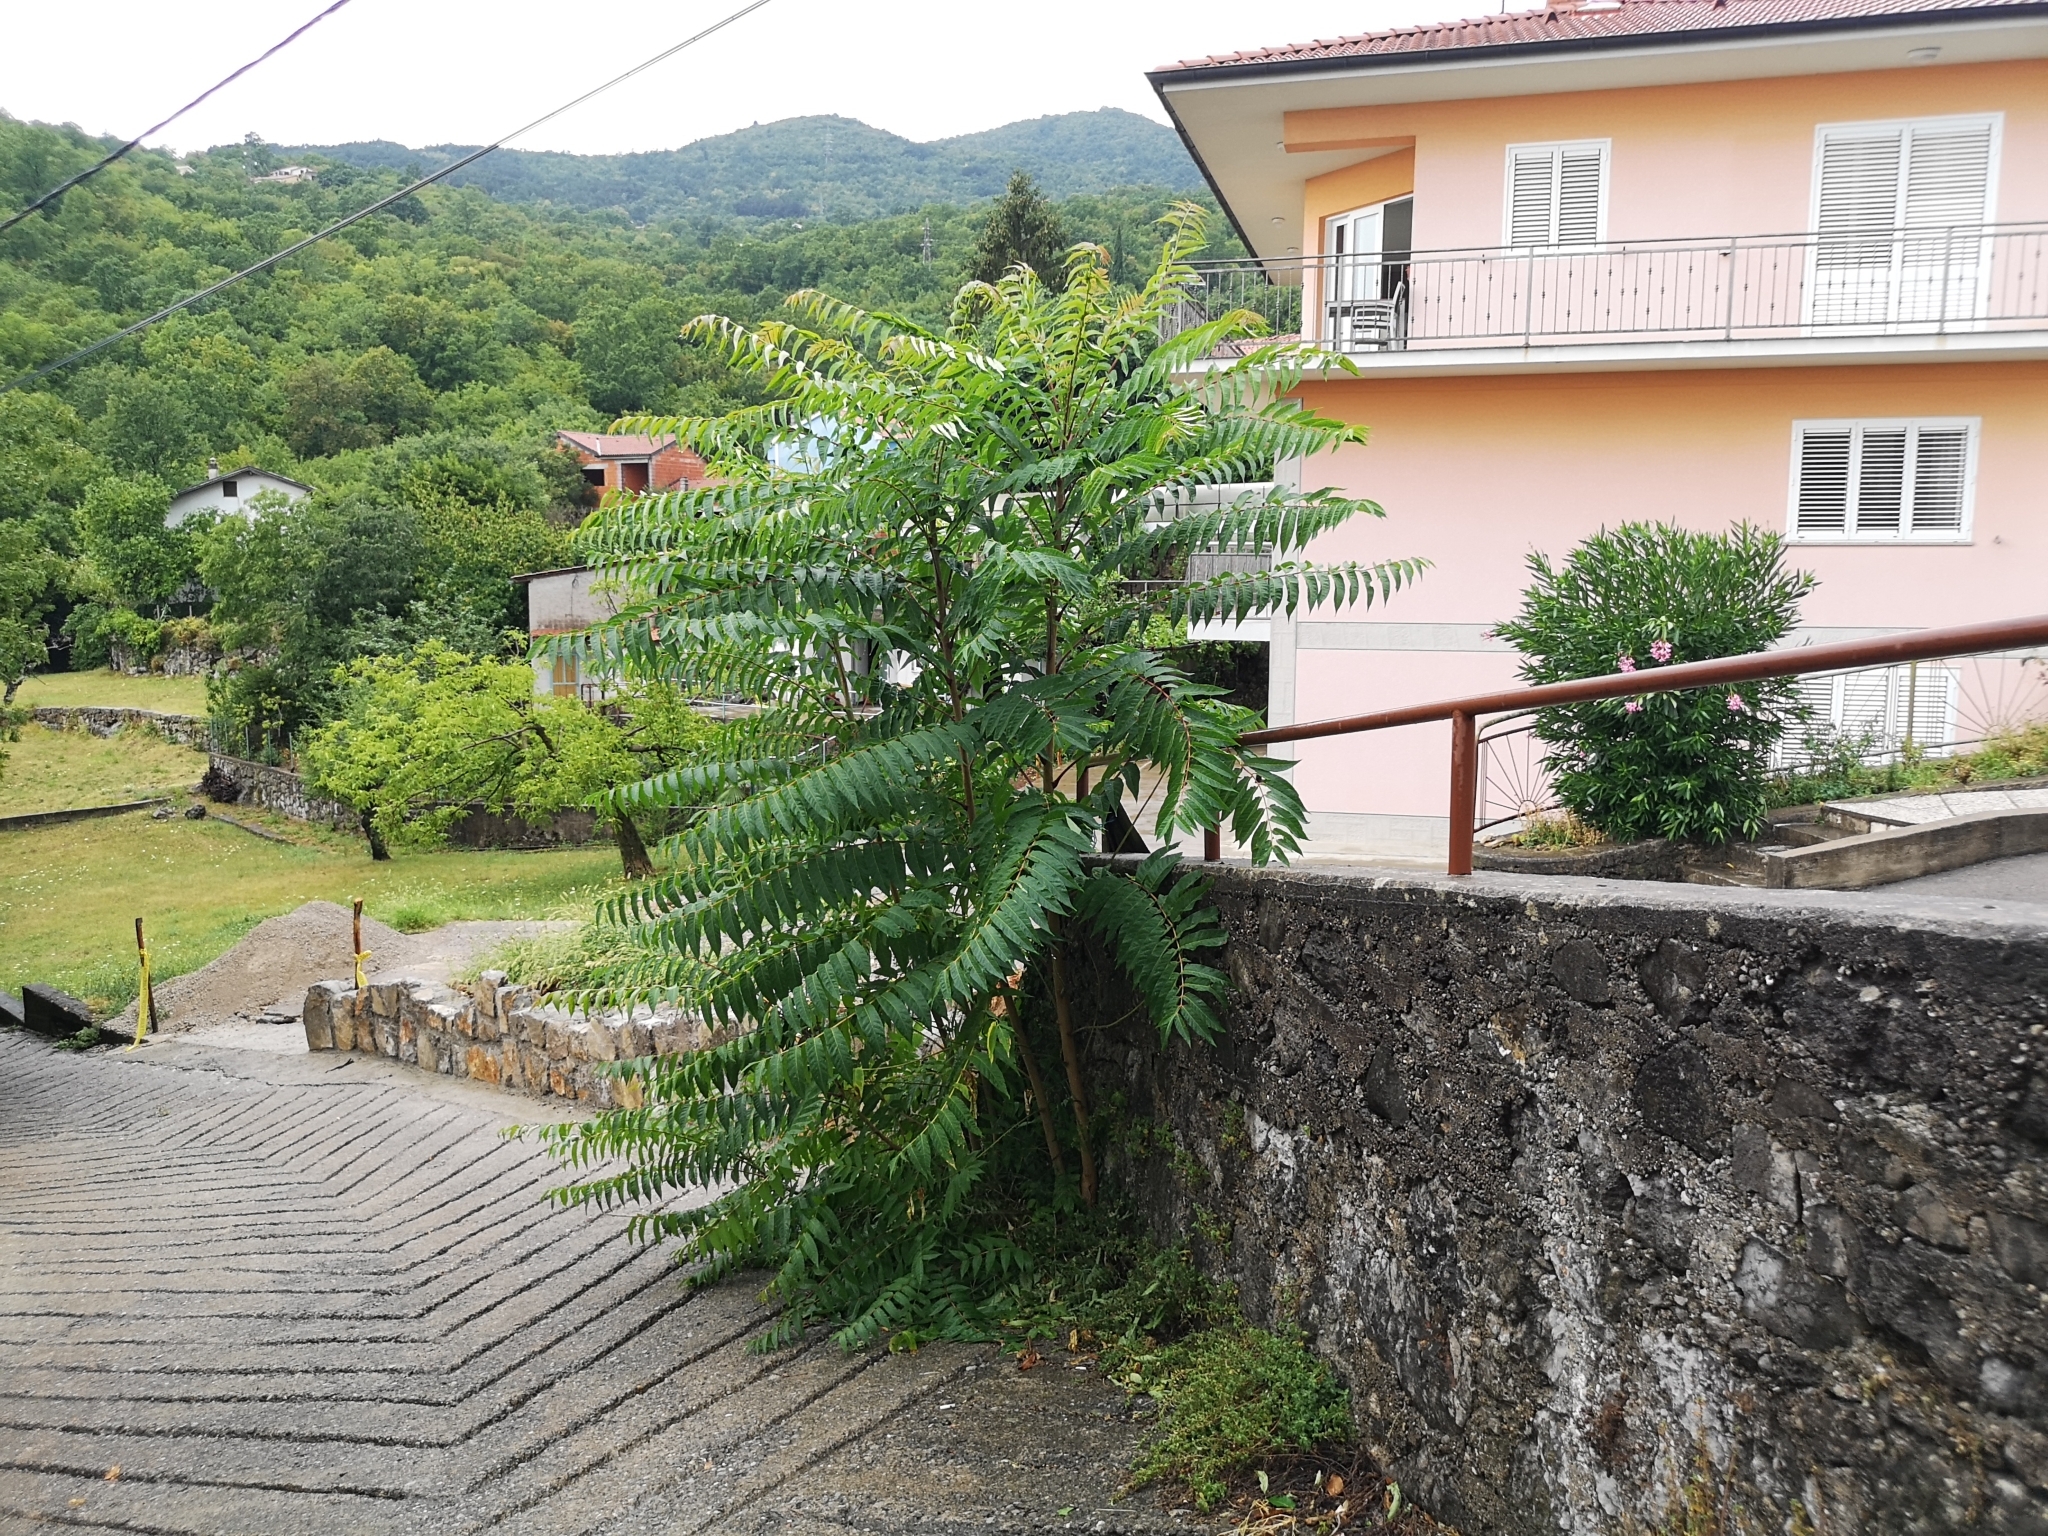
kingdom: Plantae
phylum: Tracheophyta
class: Magnoliopsida
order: Sapindales
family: Simaroubaceae
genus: Ailanthus
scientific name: Ailanthus altissima
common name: Tree-of-heaven
